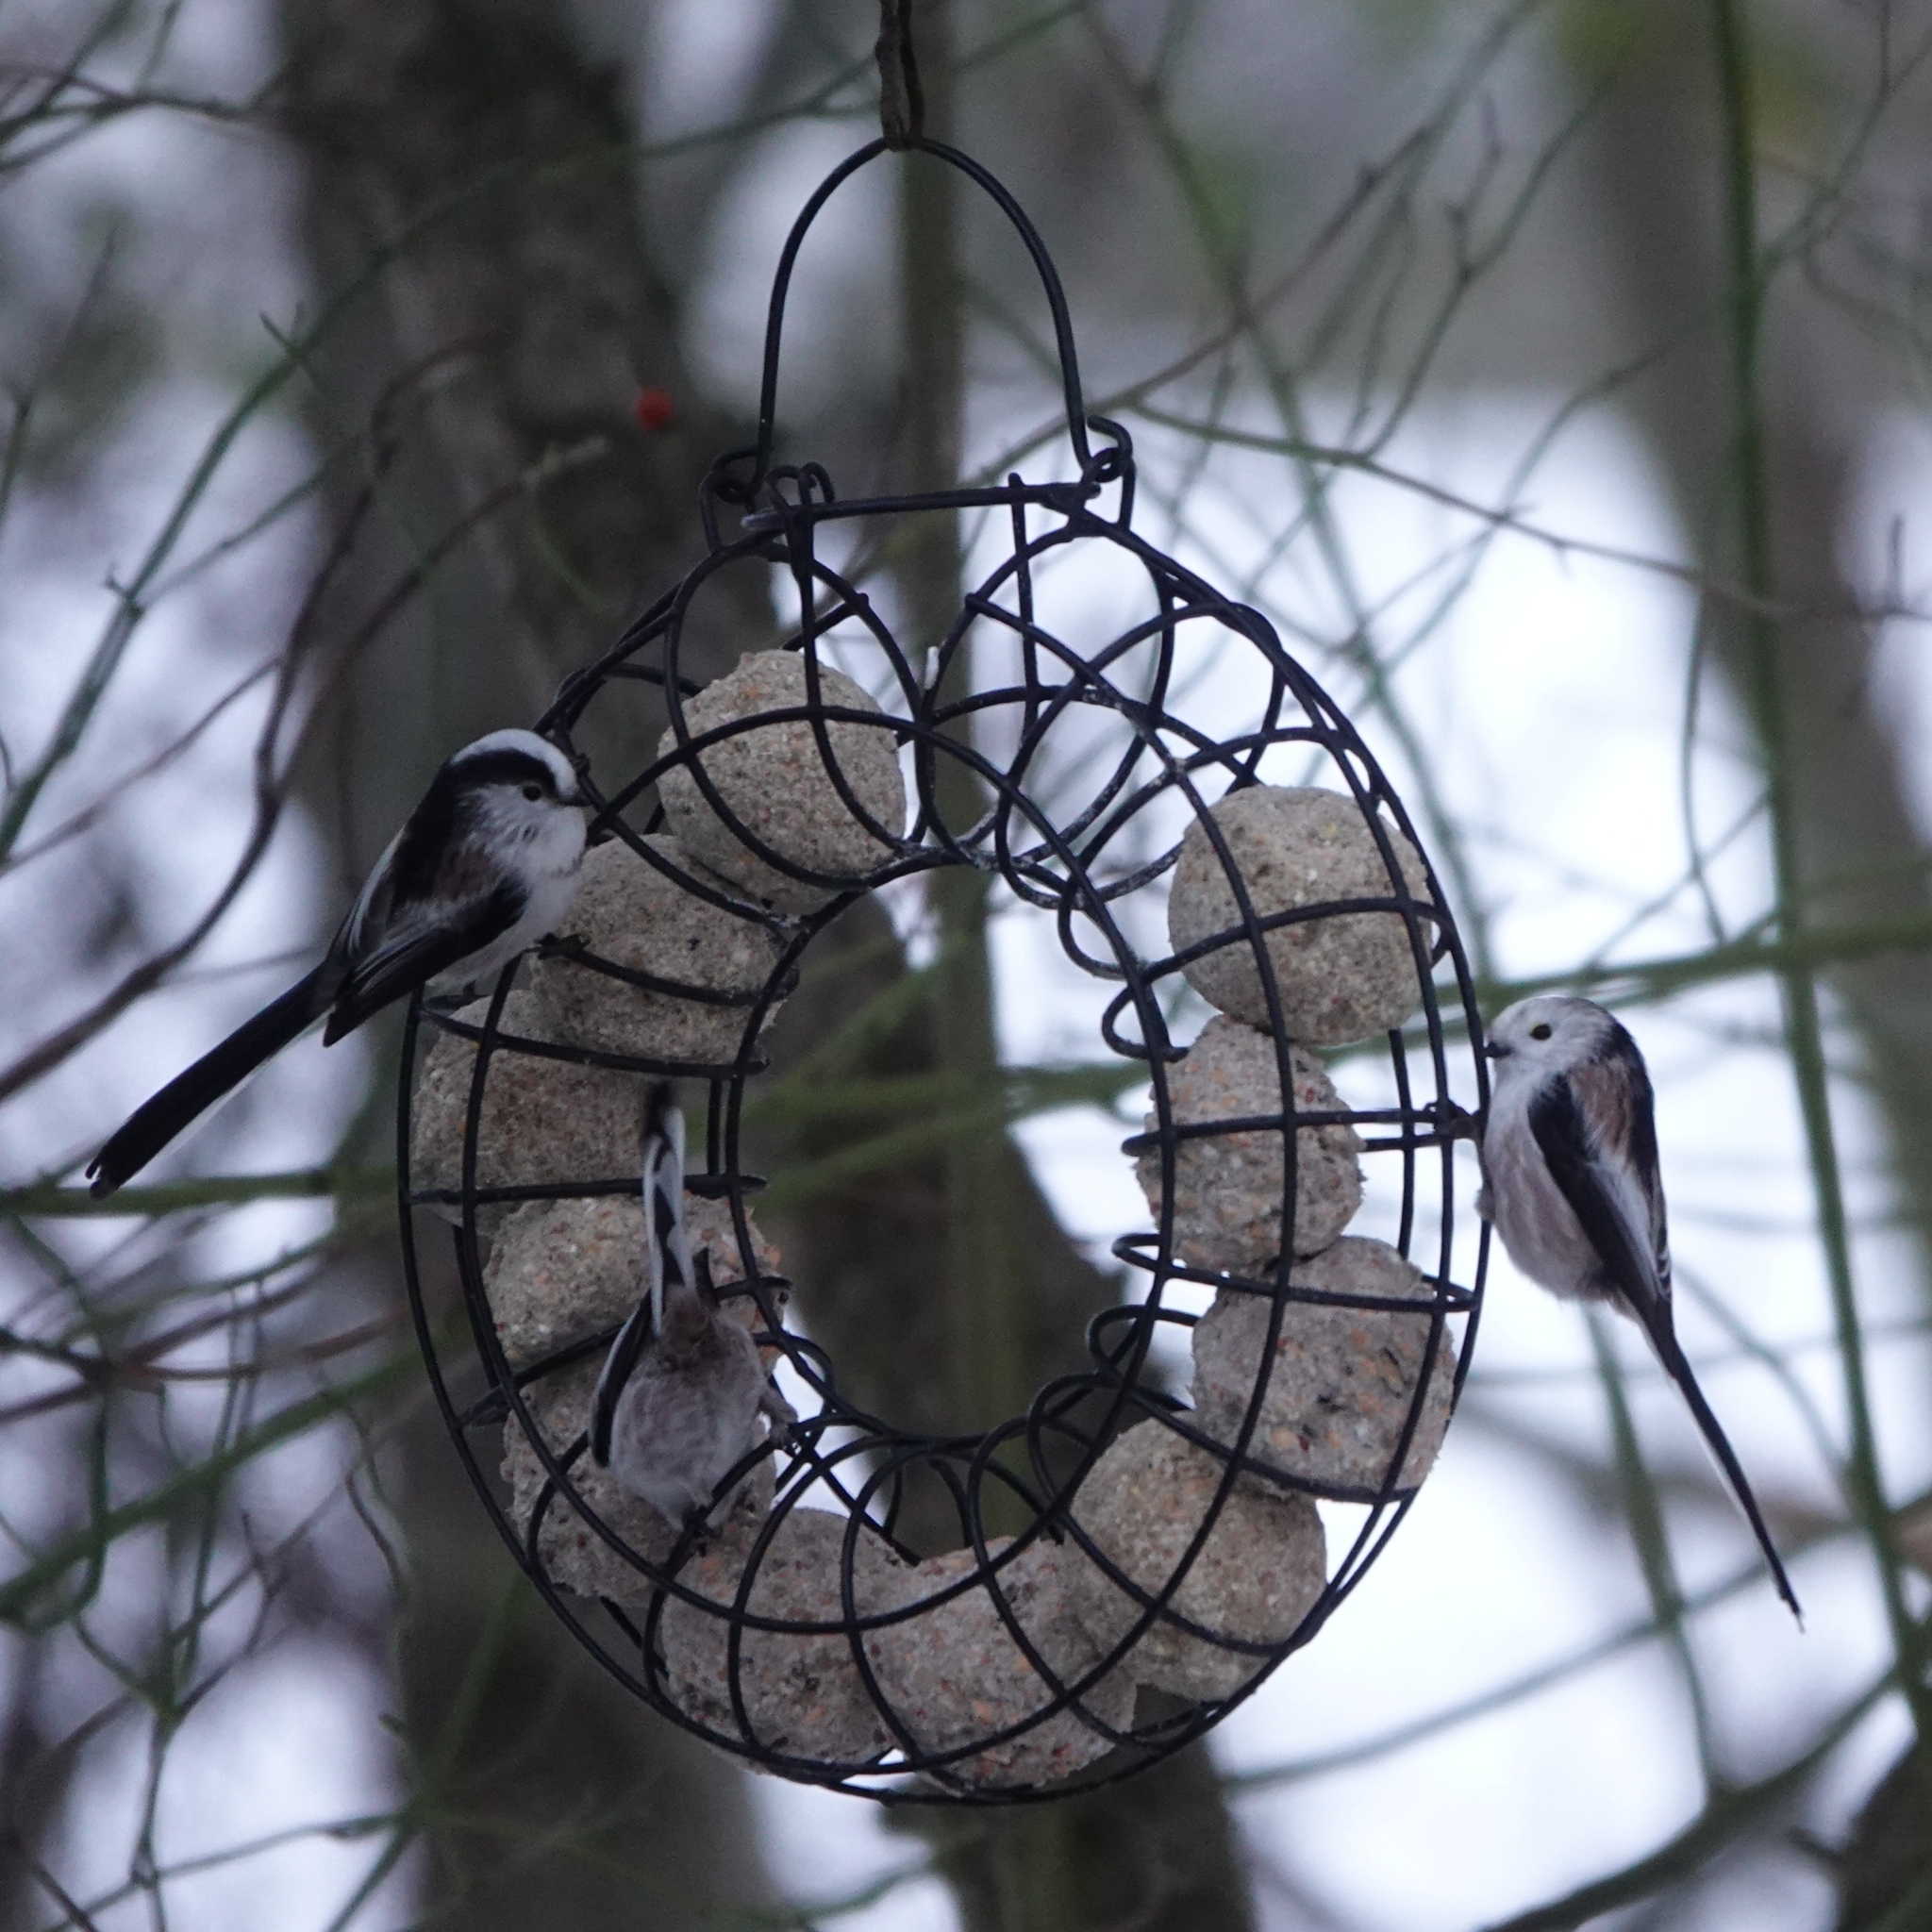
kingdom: Animalia
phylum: Chordata
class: Aves
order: Passeriformes
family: Aegithalidae
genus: Aegithalos
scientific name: Aegithalos caudatus
